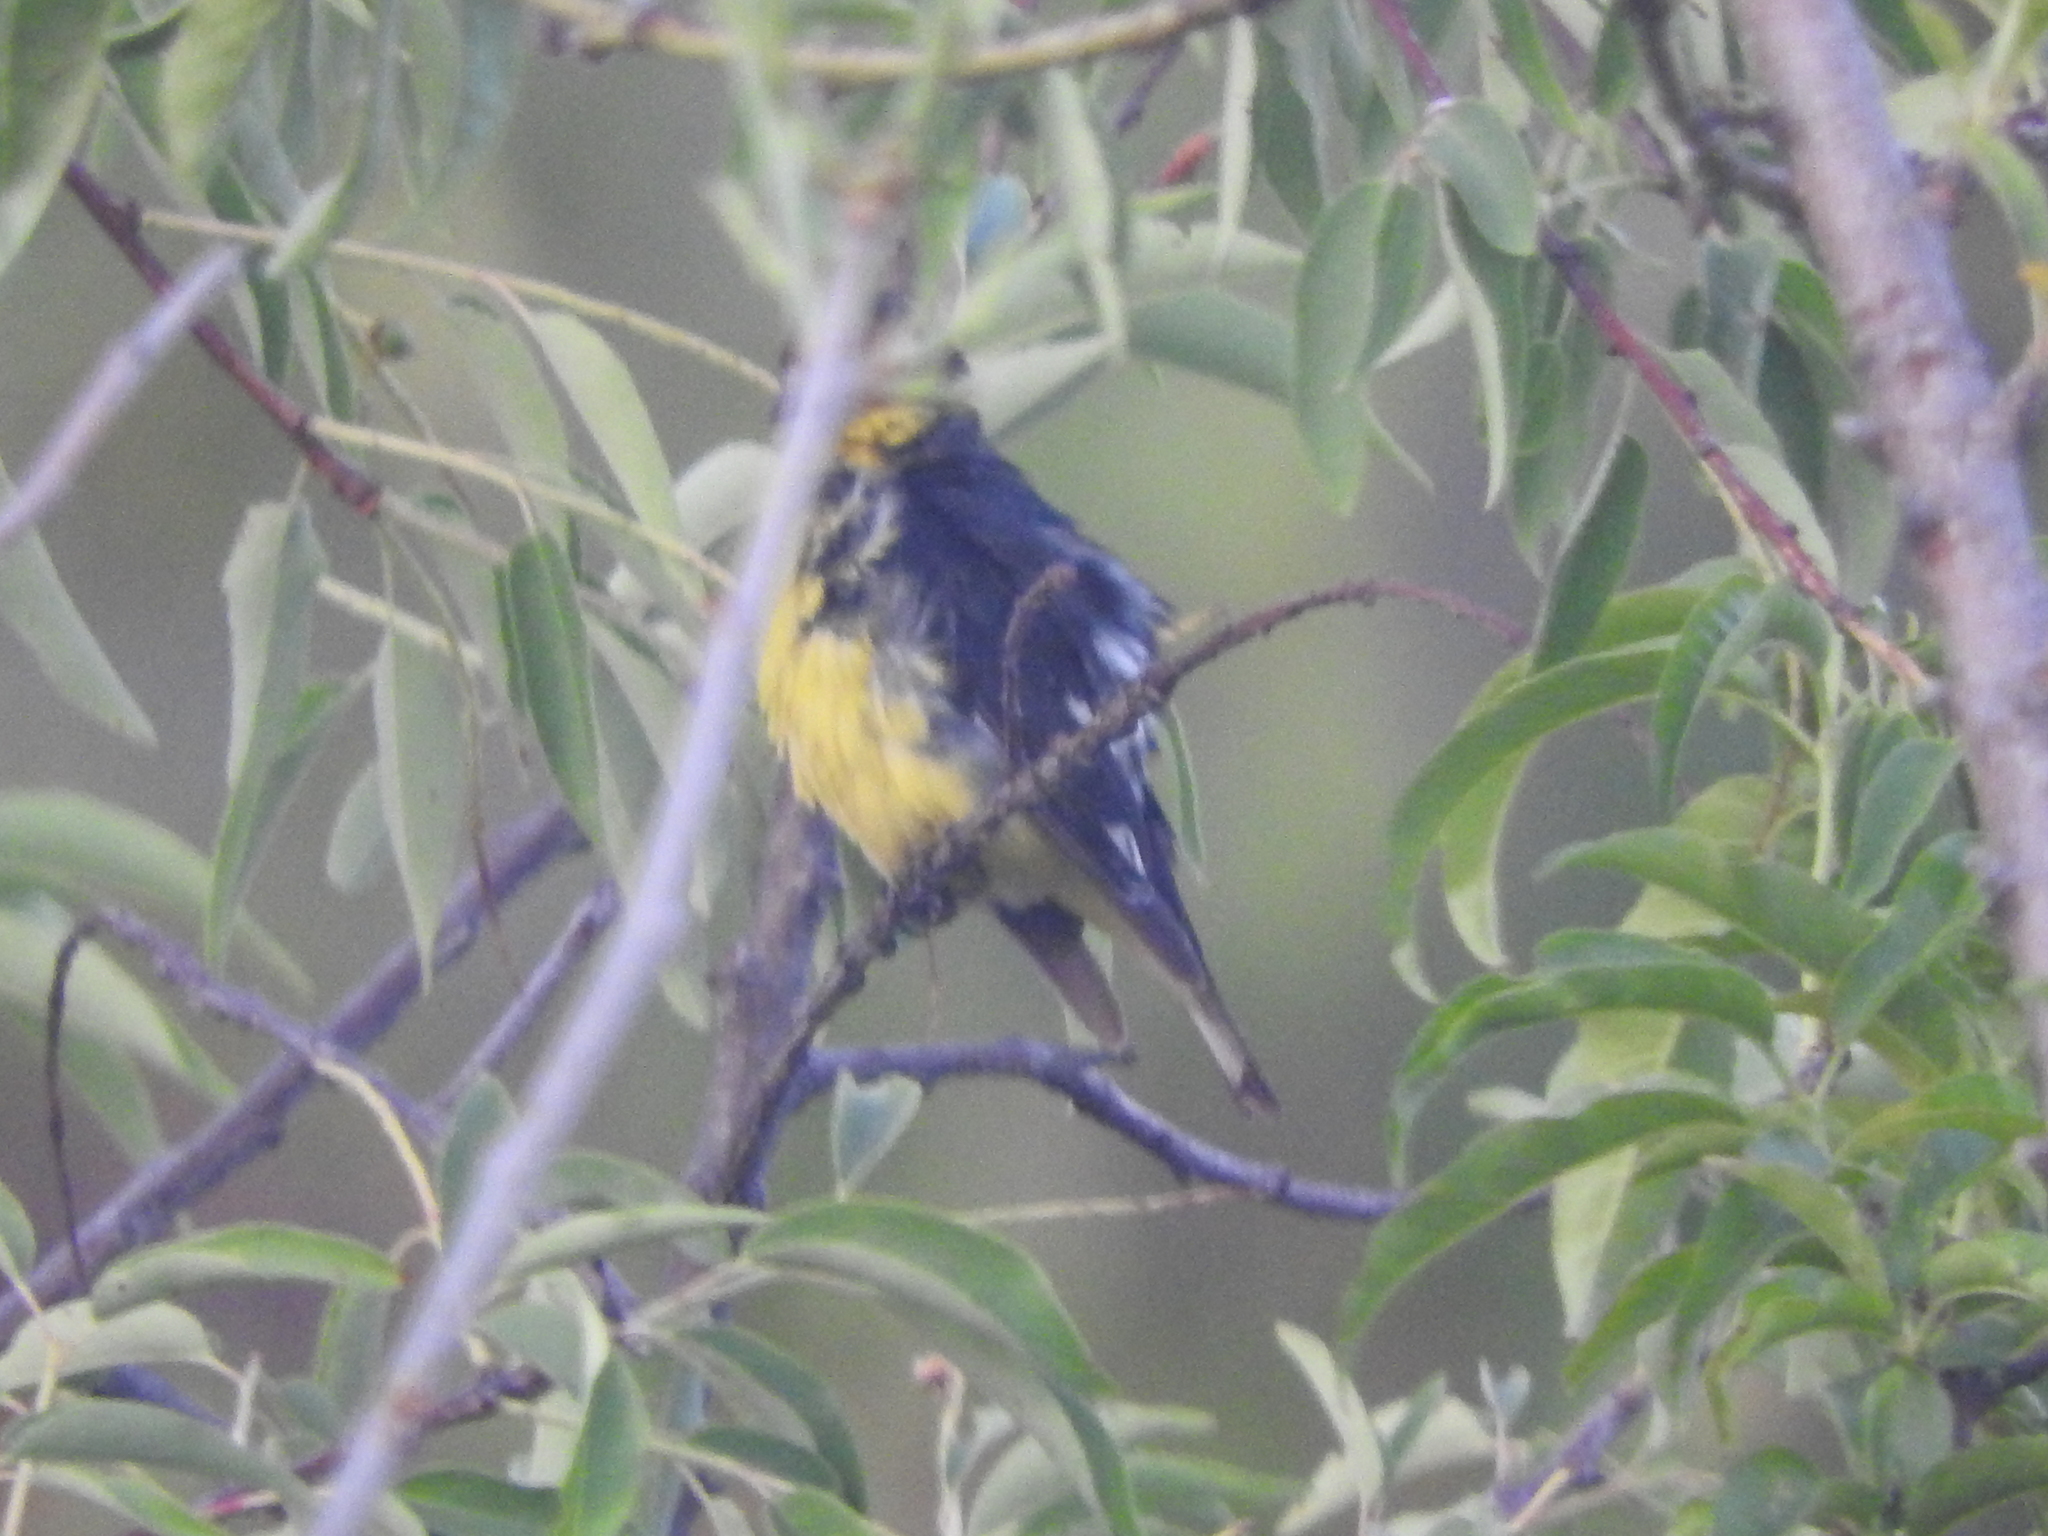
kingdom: Animalia
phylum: Chordata
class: Aves
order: Passeriformes
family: Fringillidae
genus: Spinus
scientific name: Spinus psaltria
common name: Lesser goldfinch
